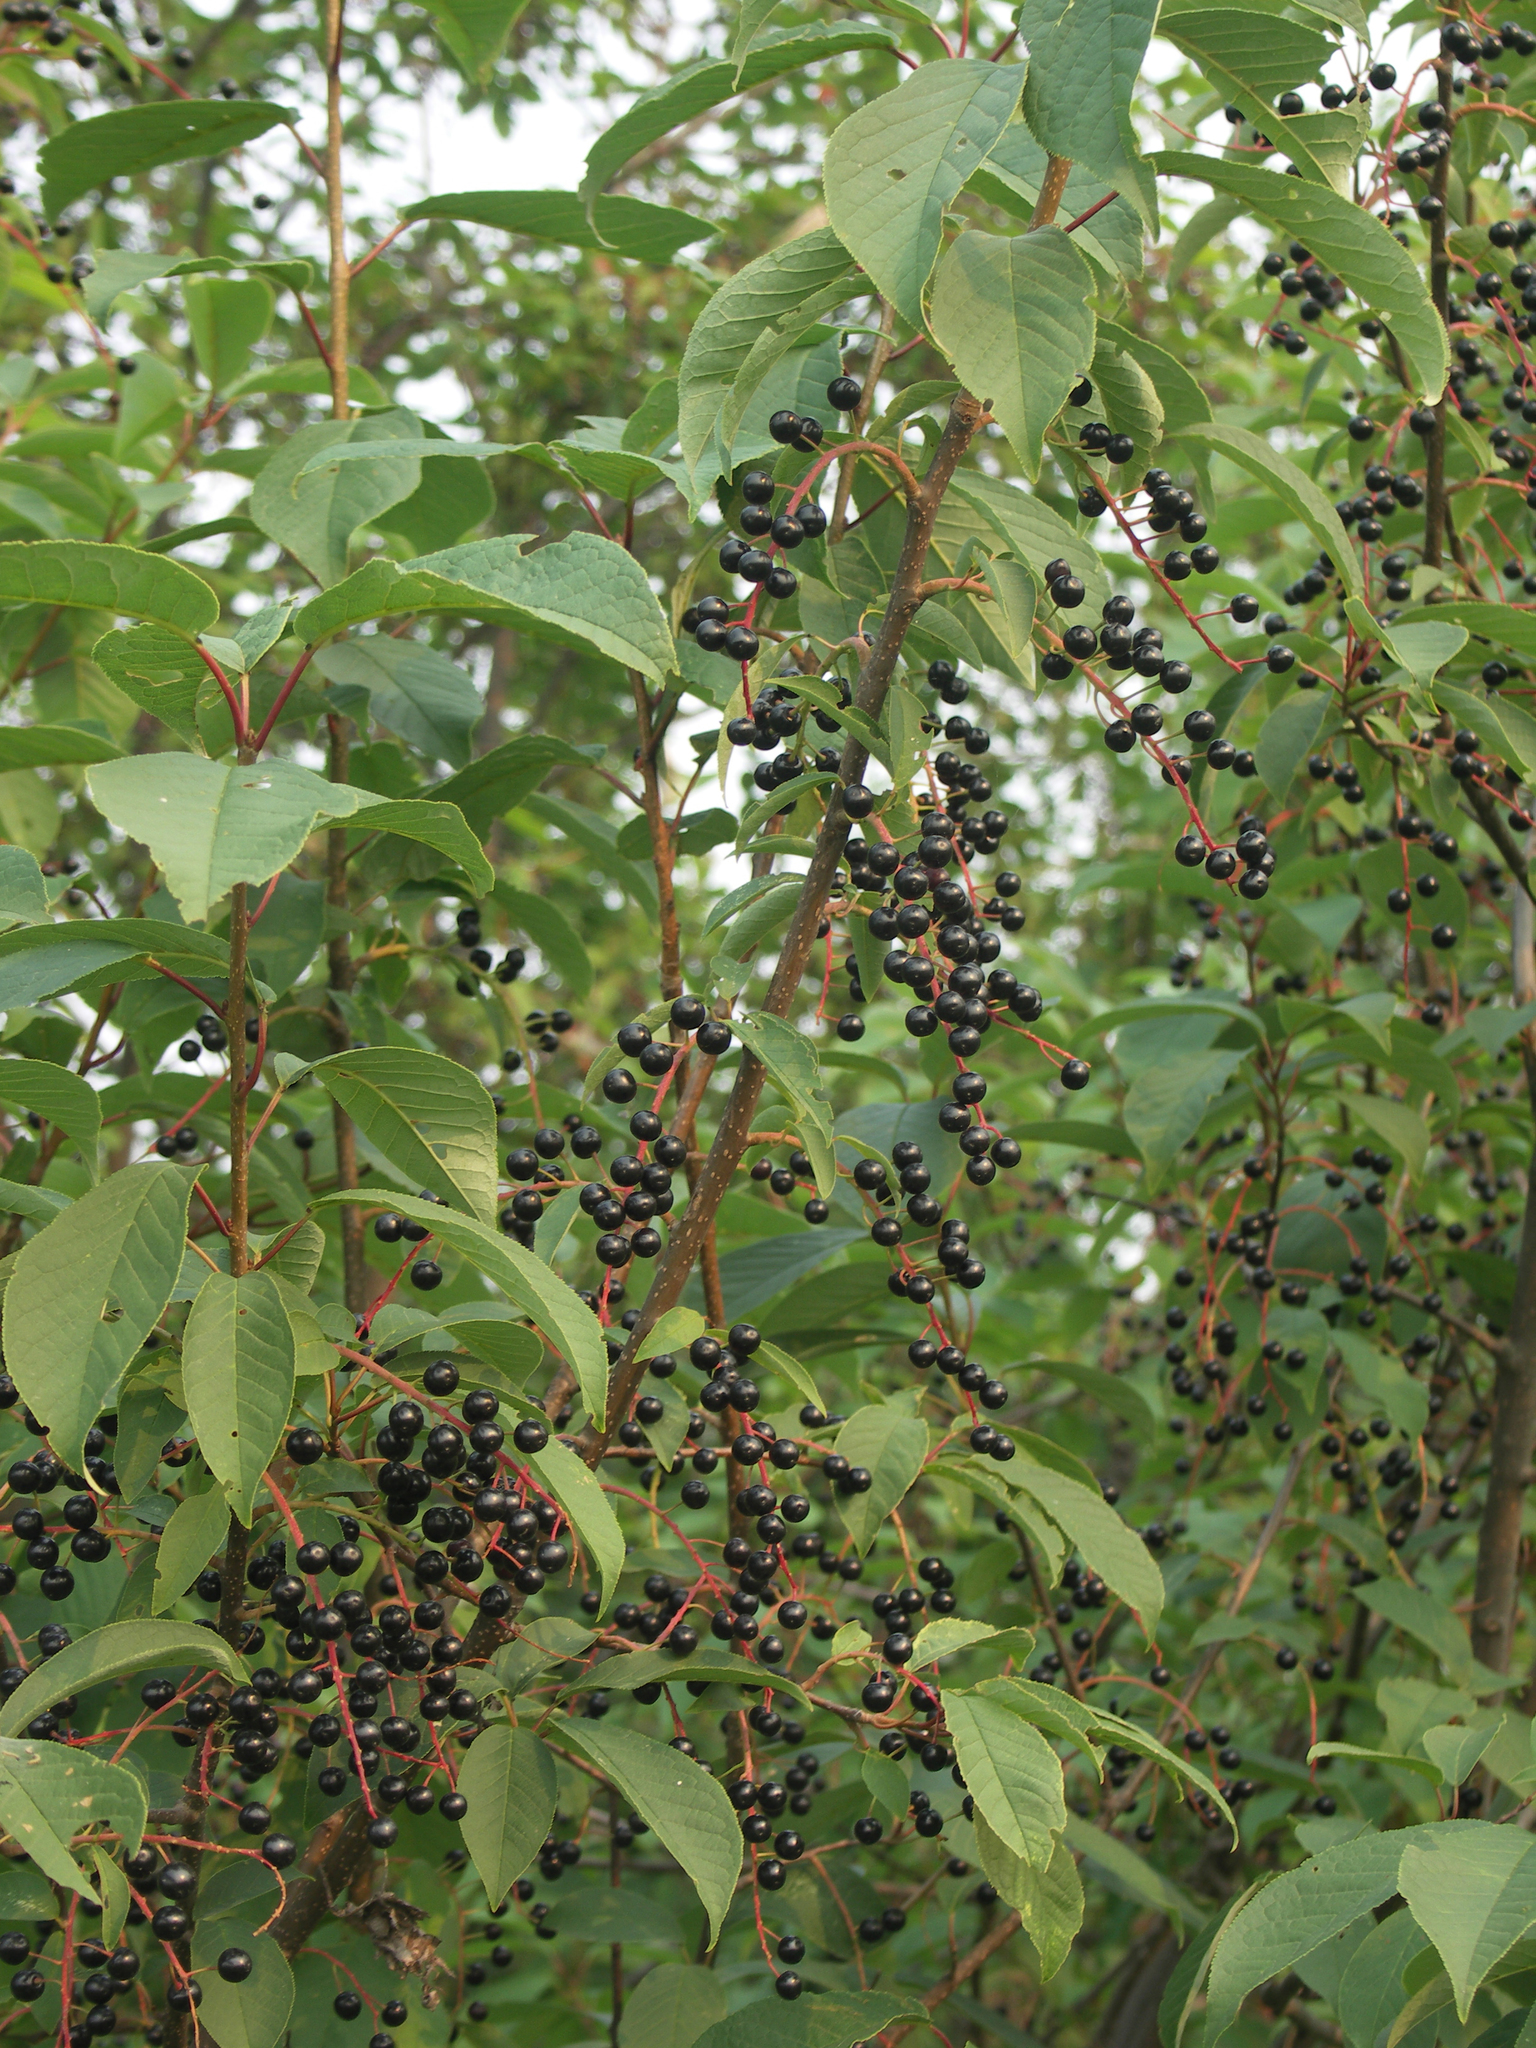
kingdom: Plantae
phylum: Tracheophyta
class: Magnoliopsida
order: Rosales
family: Rosaceae
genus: Prunus
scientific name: Prunus padus
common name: Bird cherry
